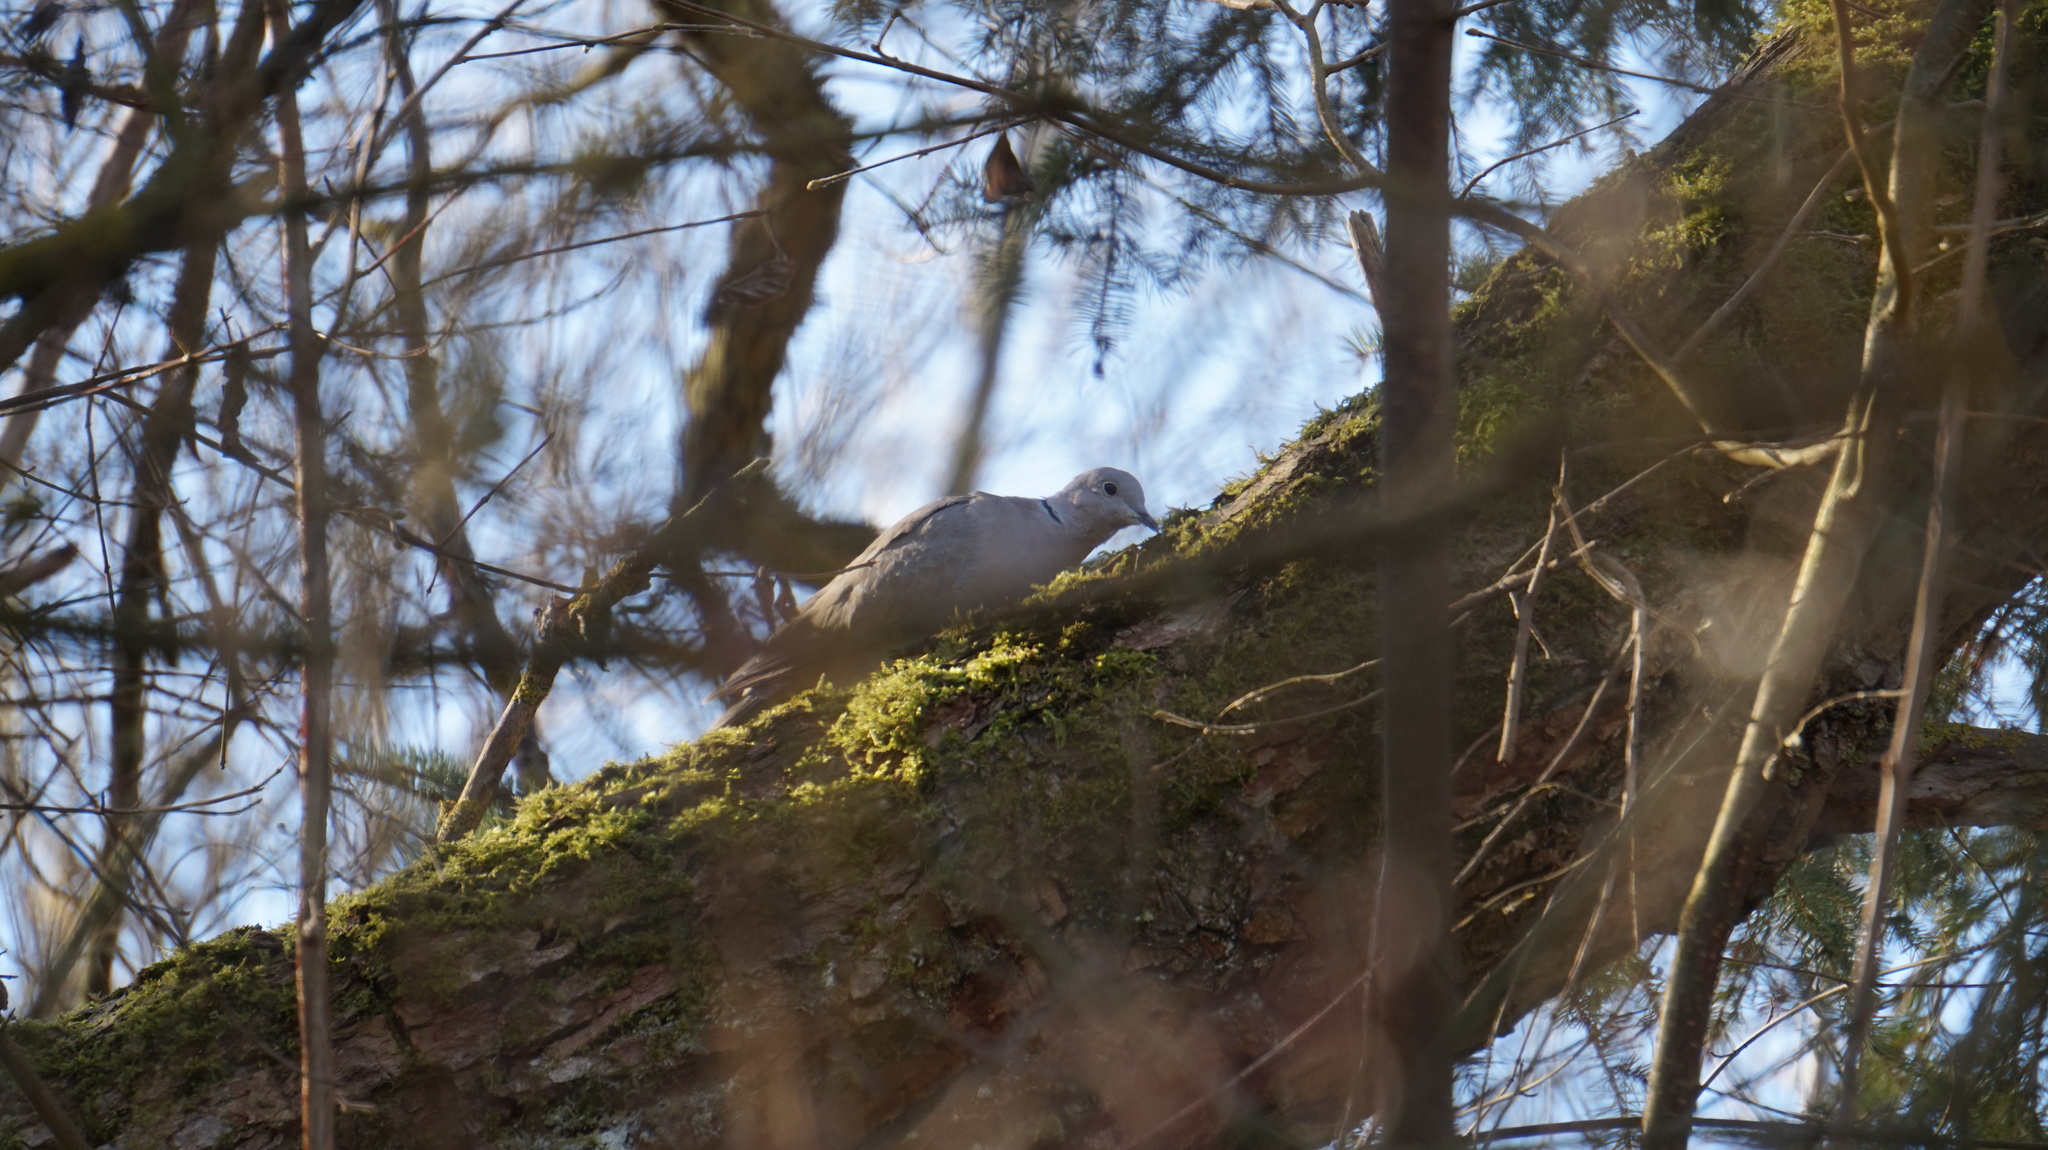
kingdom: Animalia
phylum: Chordata
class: Aves
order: Columbiformes
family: Columbidae
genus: Streptopelia
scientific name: Streptopelia decaocto
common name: Eurasian collared dove
